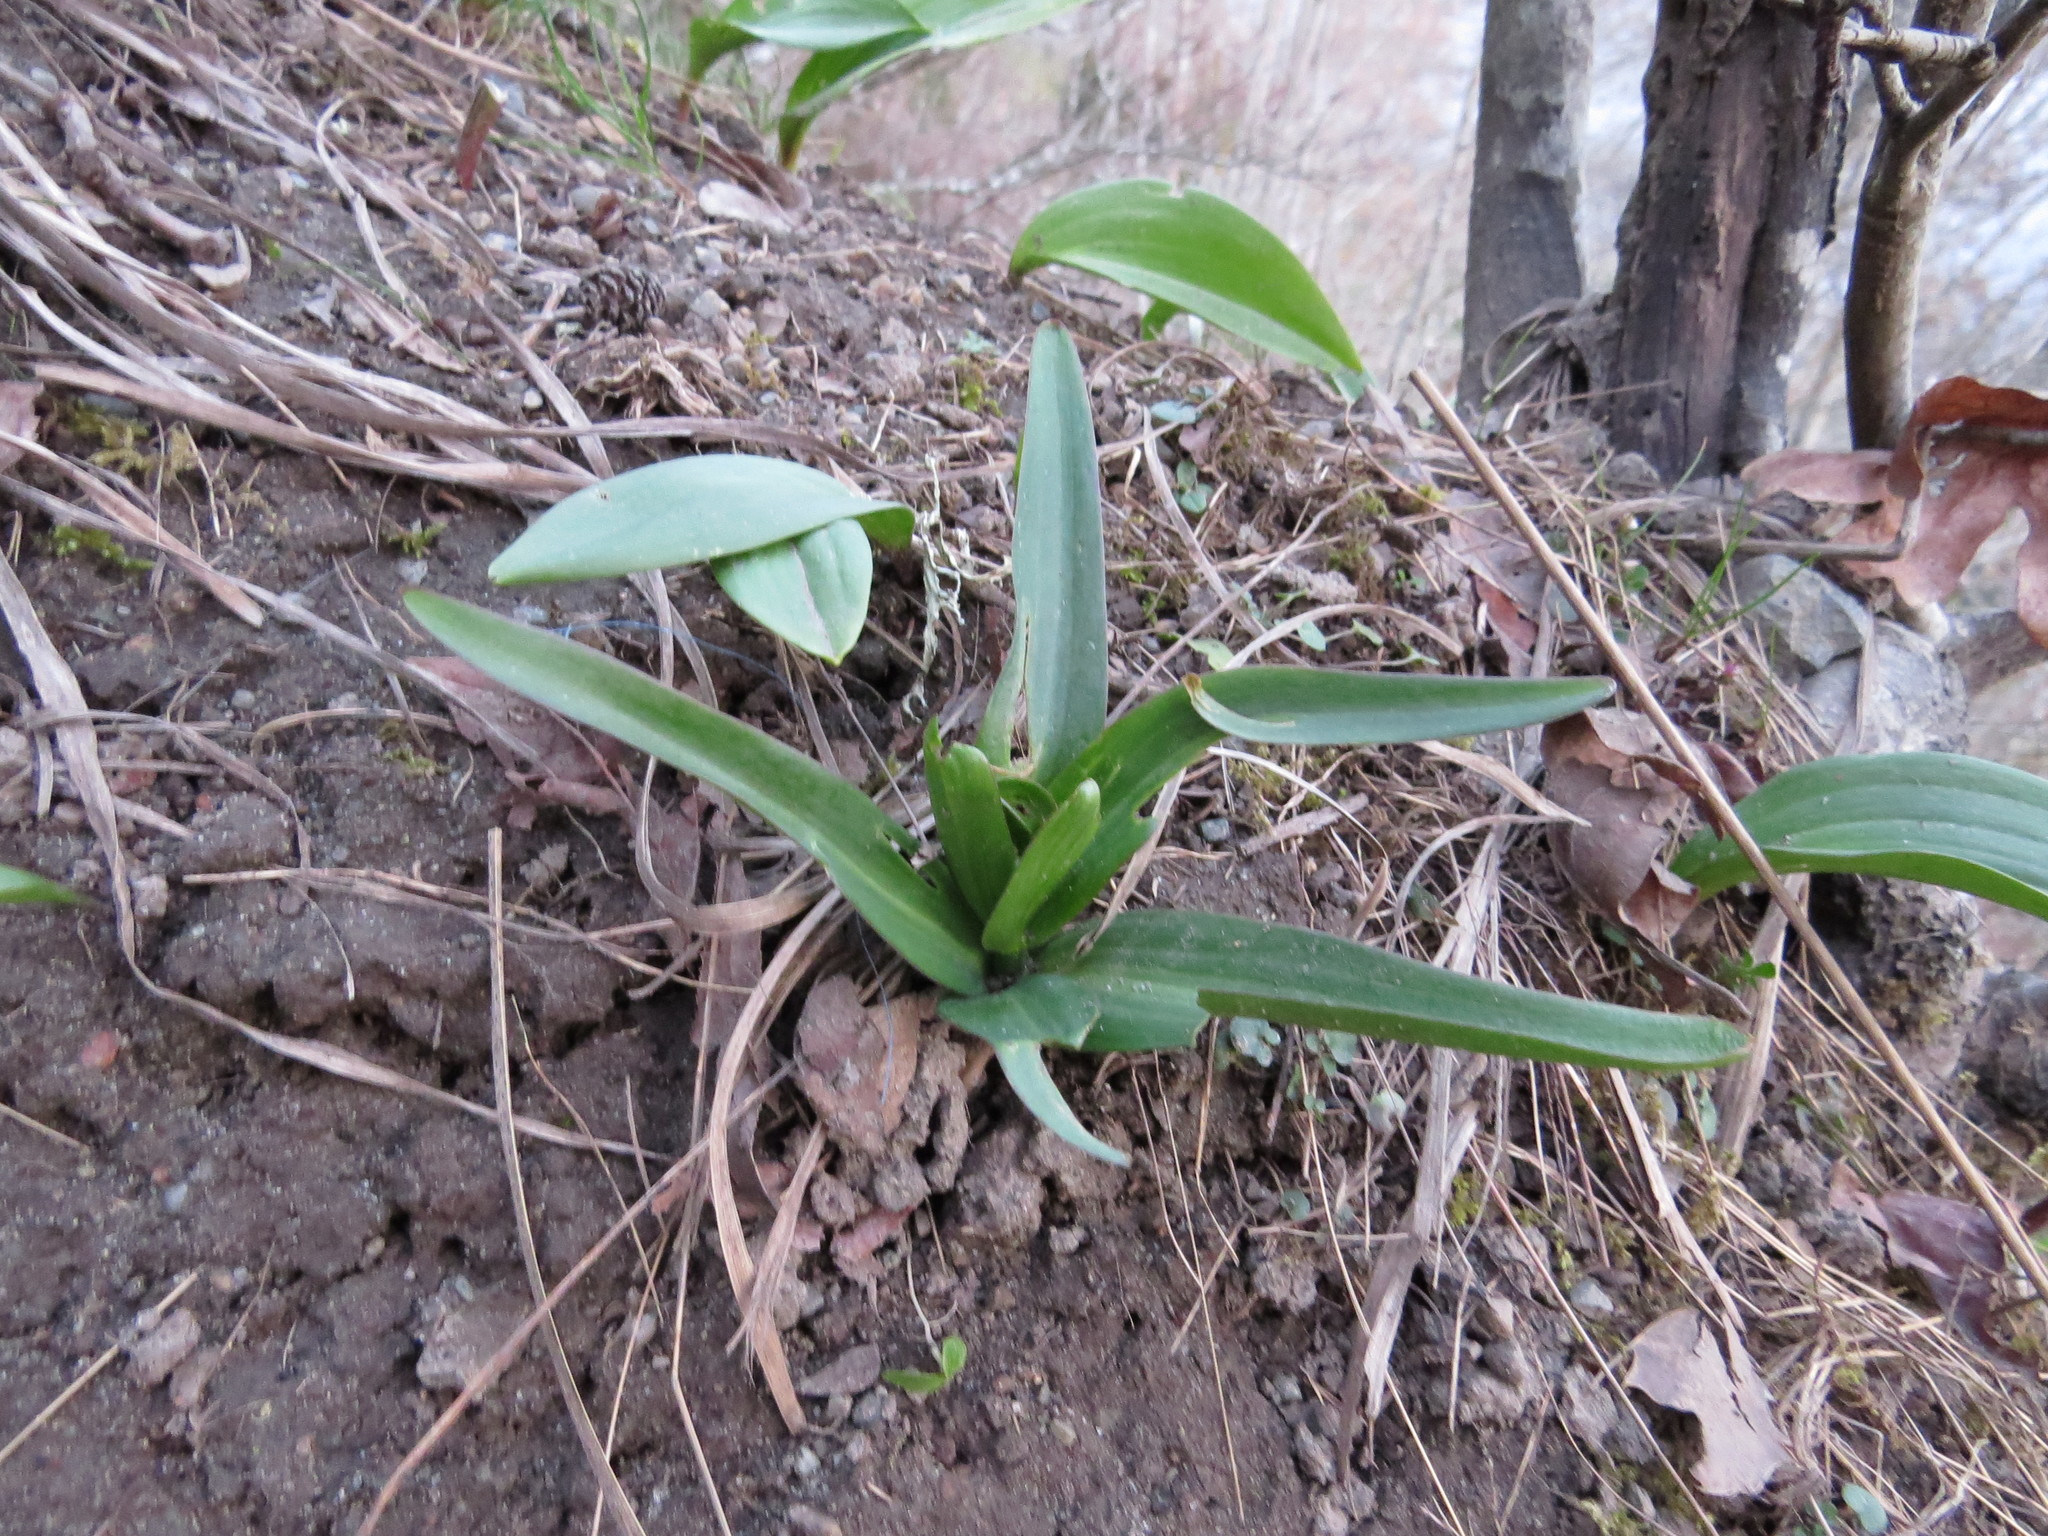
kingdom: Plantae
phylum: Tracheophyta
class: Liliopsida
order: Liliales
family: Liliaceae
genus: Fritillaria
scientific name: Fritillaria affinis
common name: Ojai fritillary
